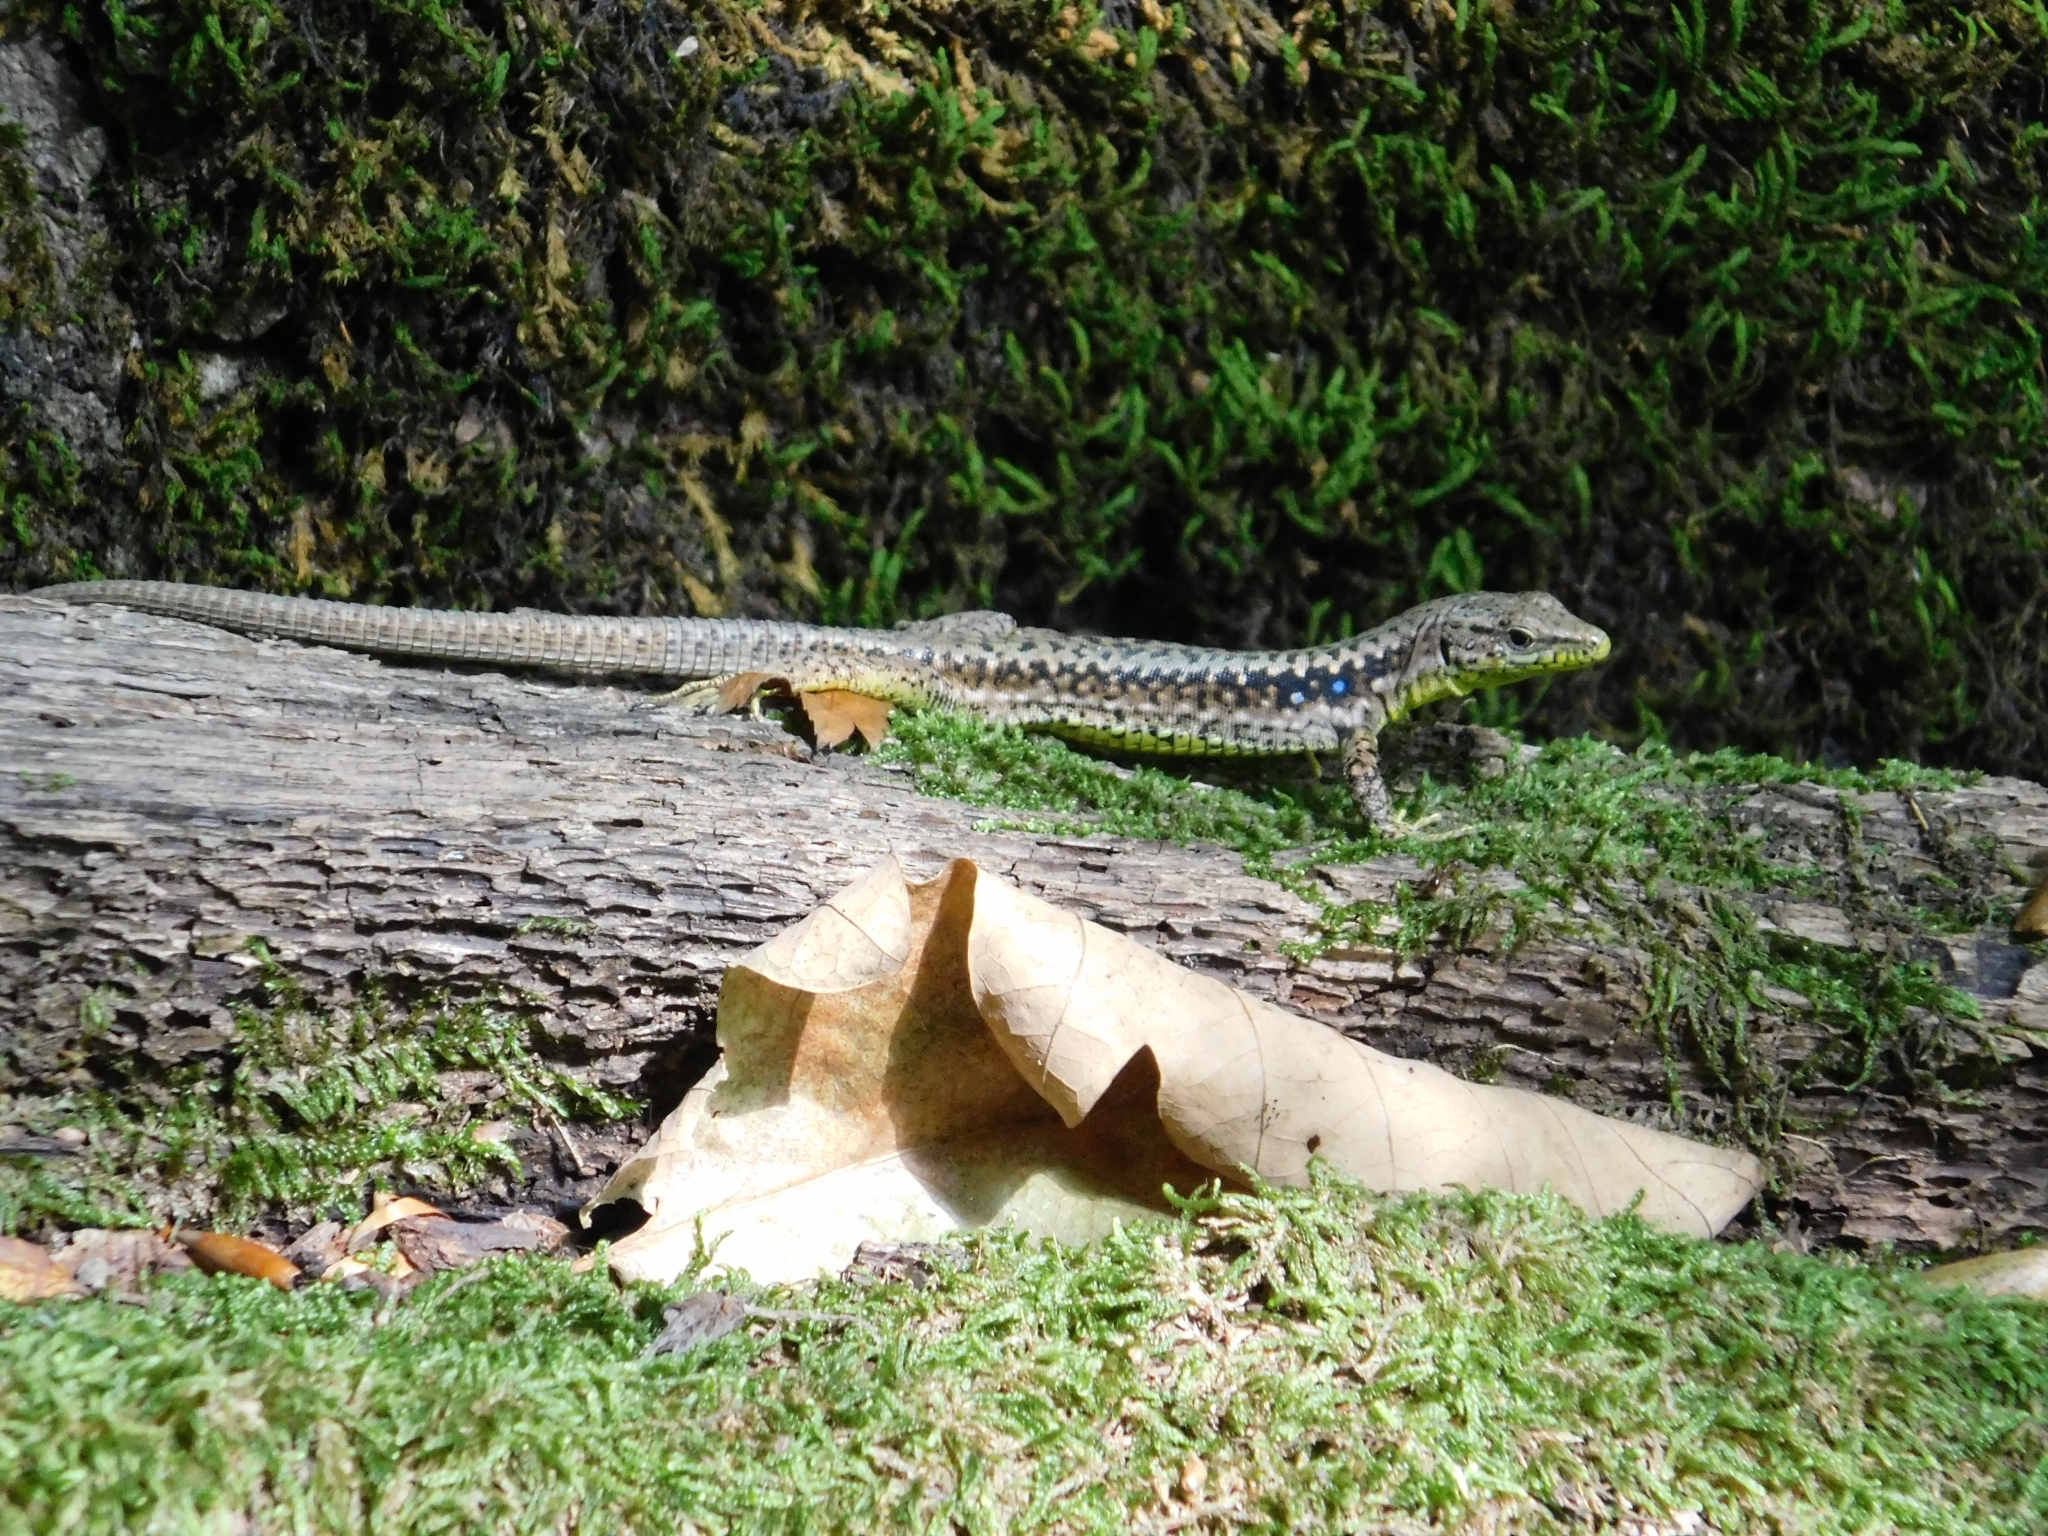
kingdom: Animalia
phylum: Chordata
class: Squamata
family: Lacertidae
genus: Darevskia
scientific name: Darevskia brauneri
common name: Brauner's rock lizard
